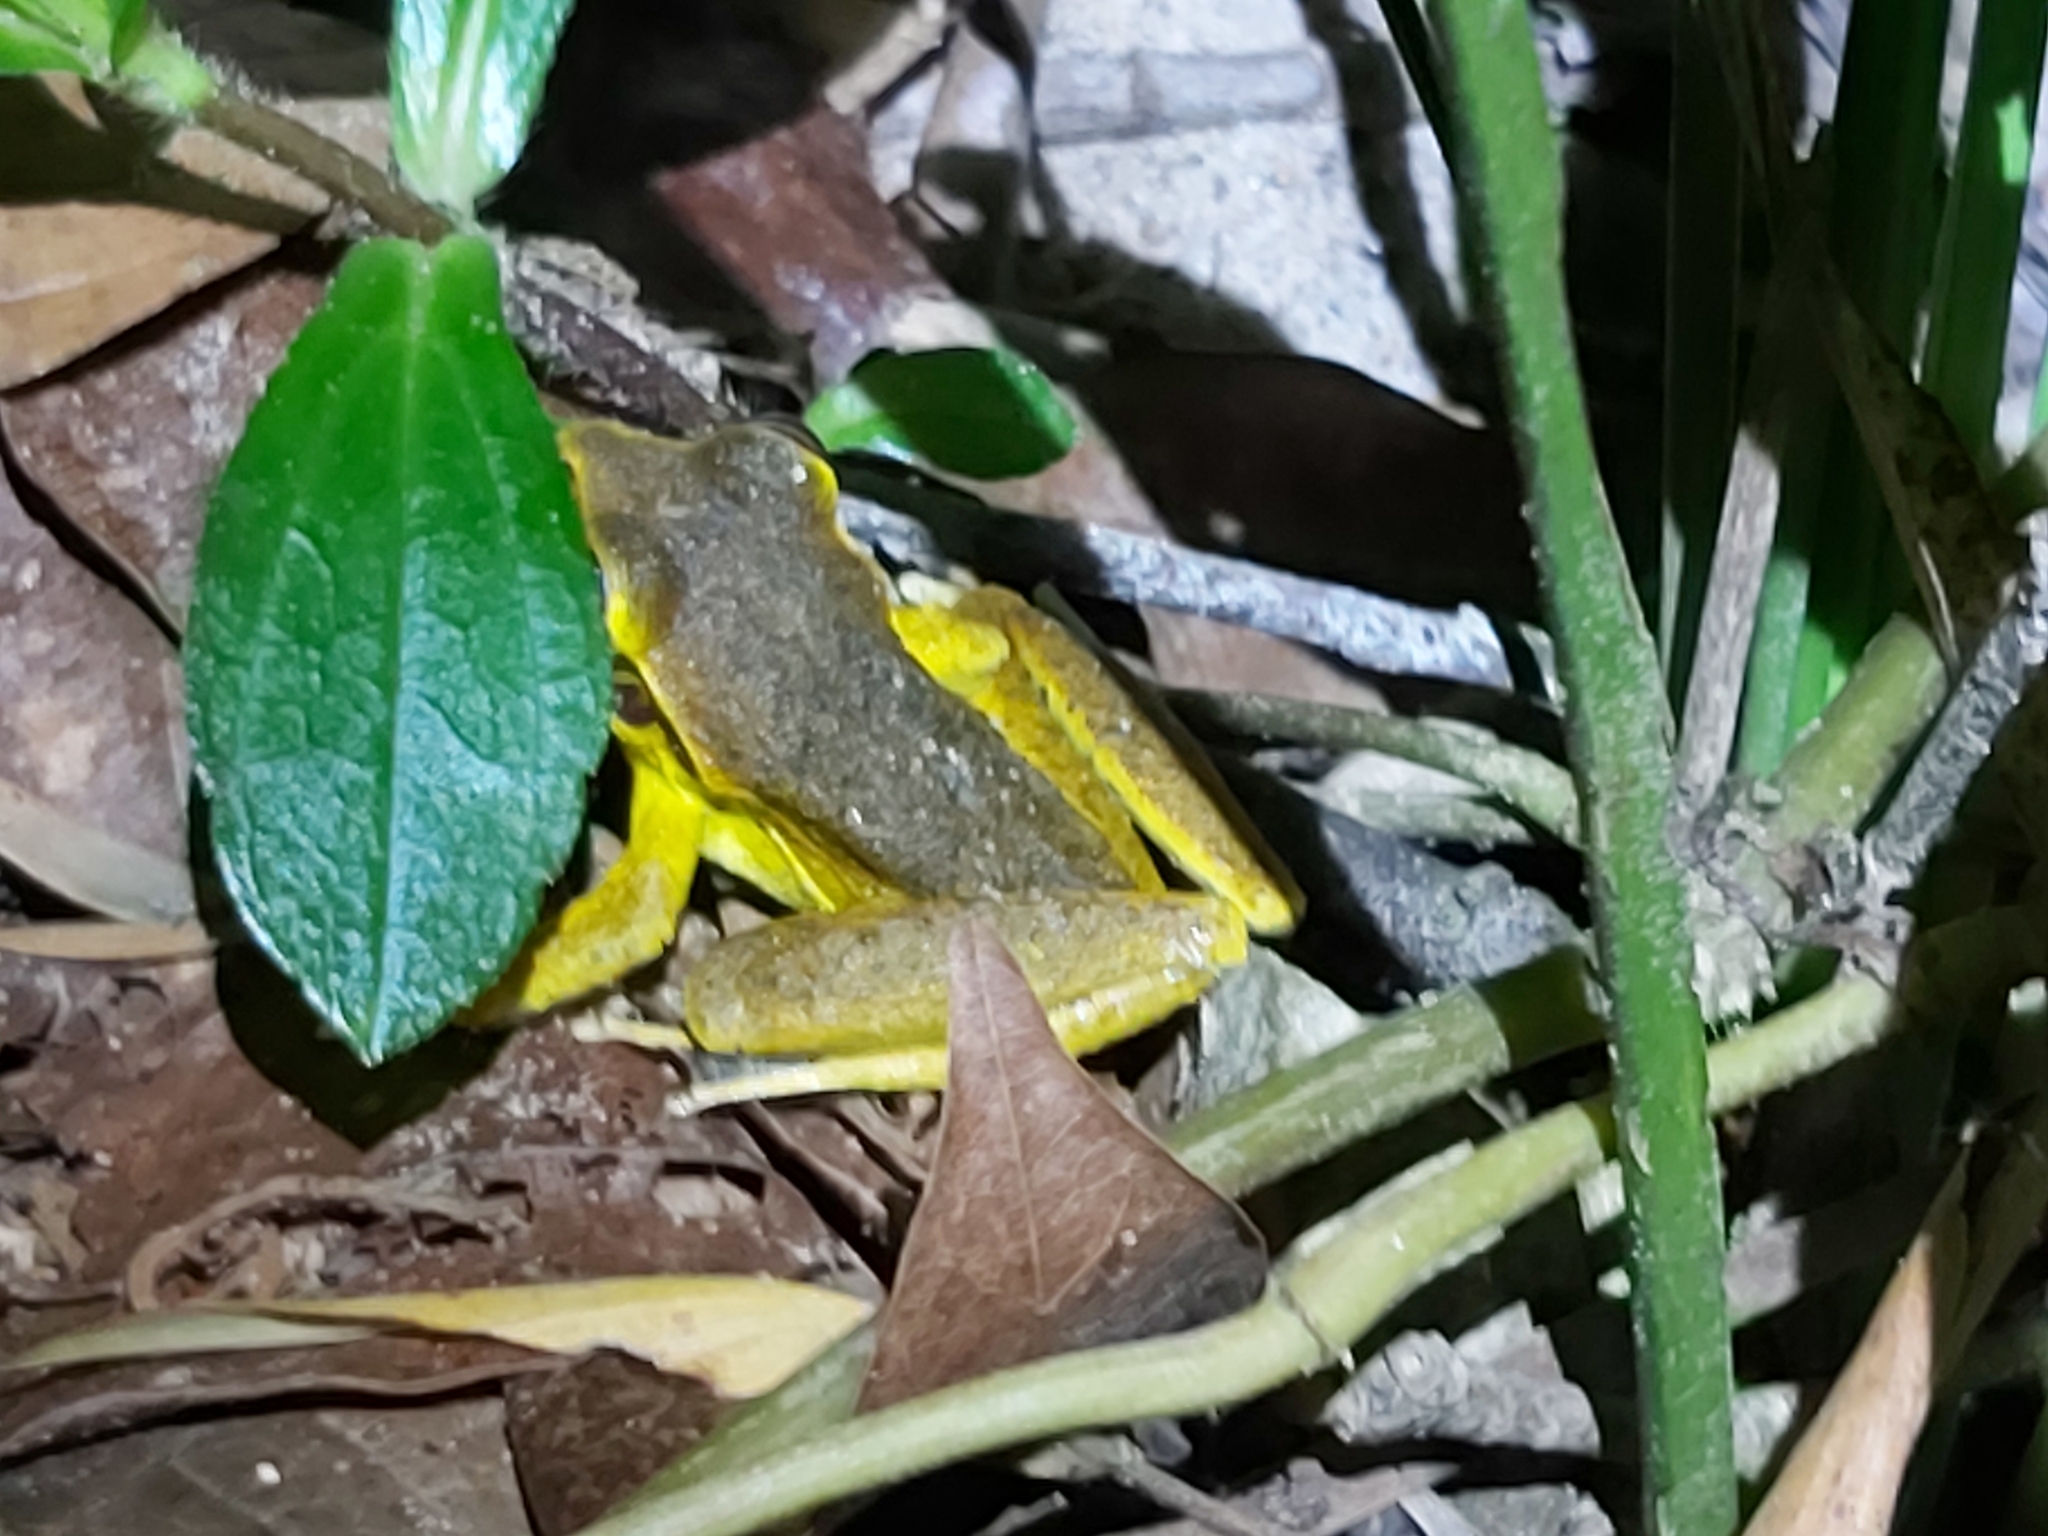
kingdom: Animalia
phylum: Chordata
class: Amphibia
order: Anura
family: Hylidae
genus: Ranoidea
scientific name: Ranoidea
